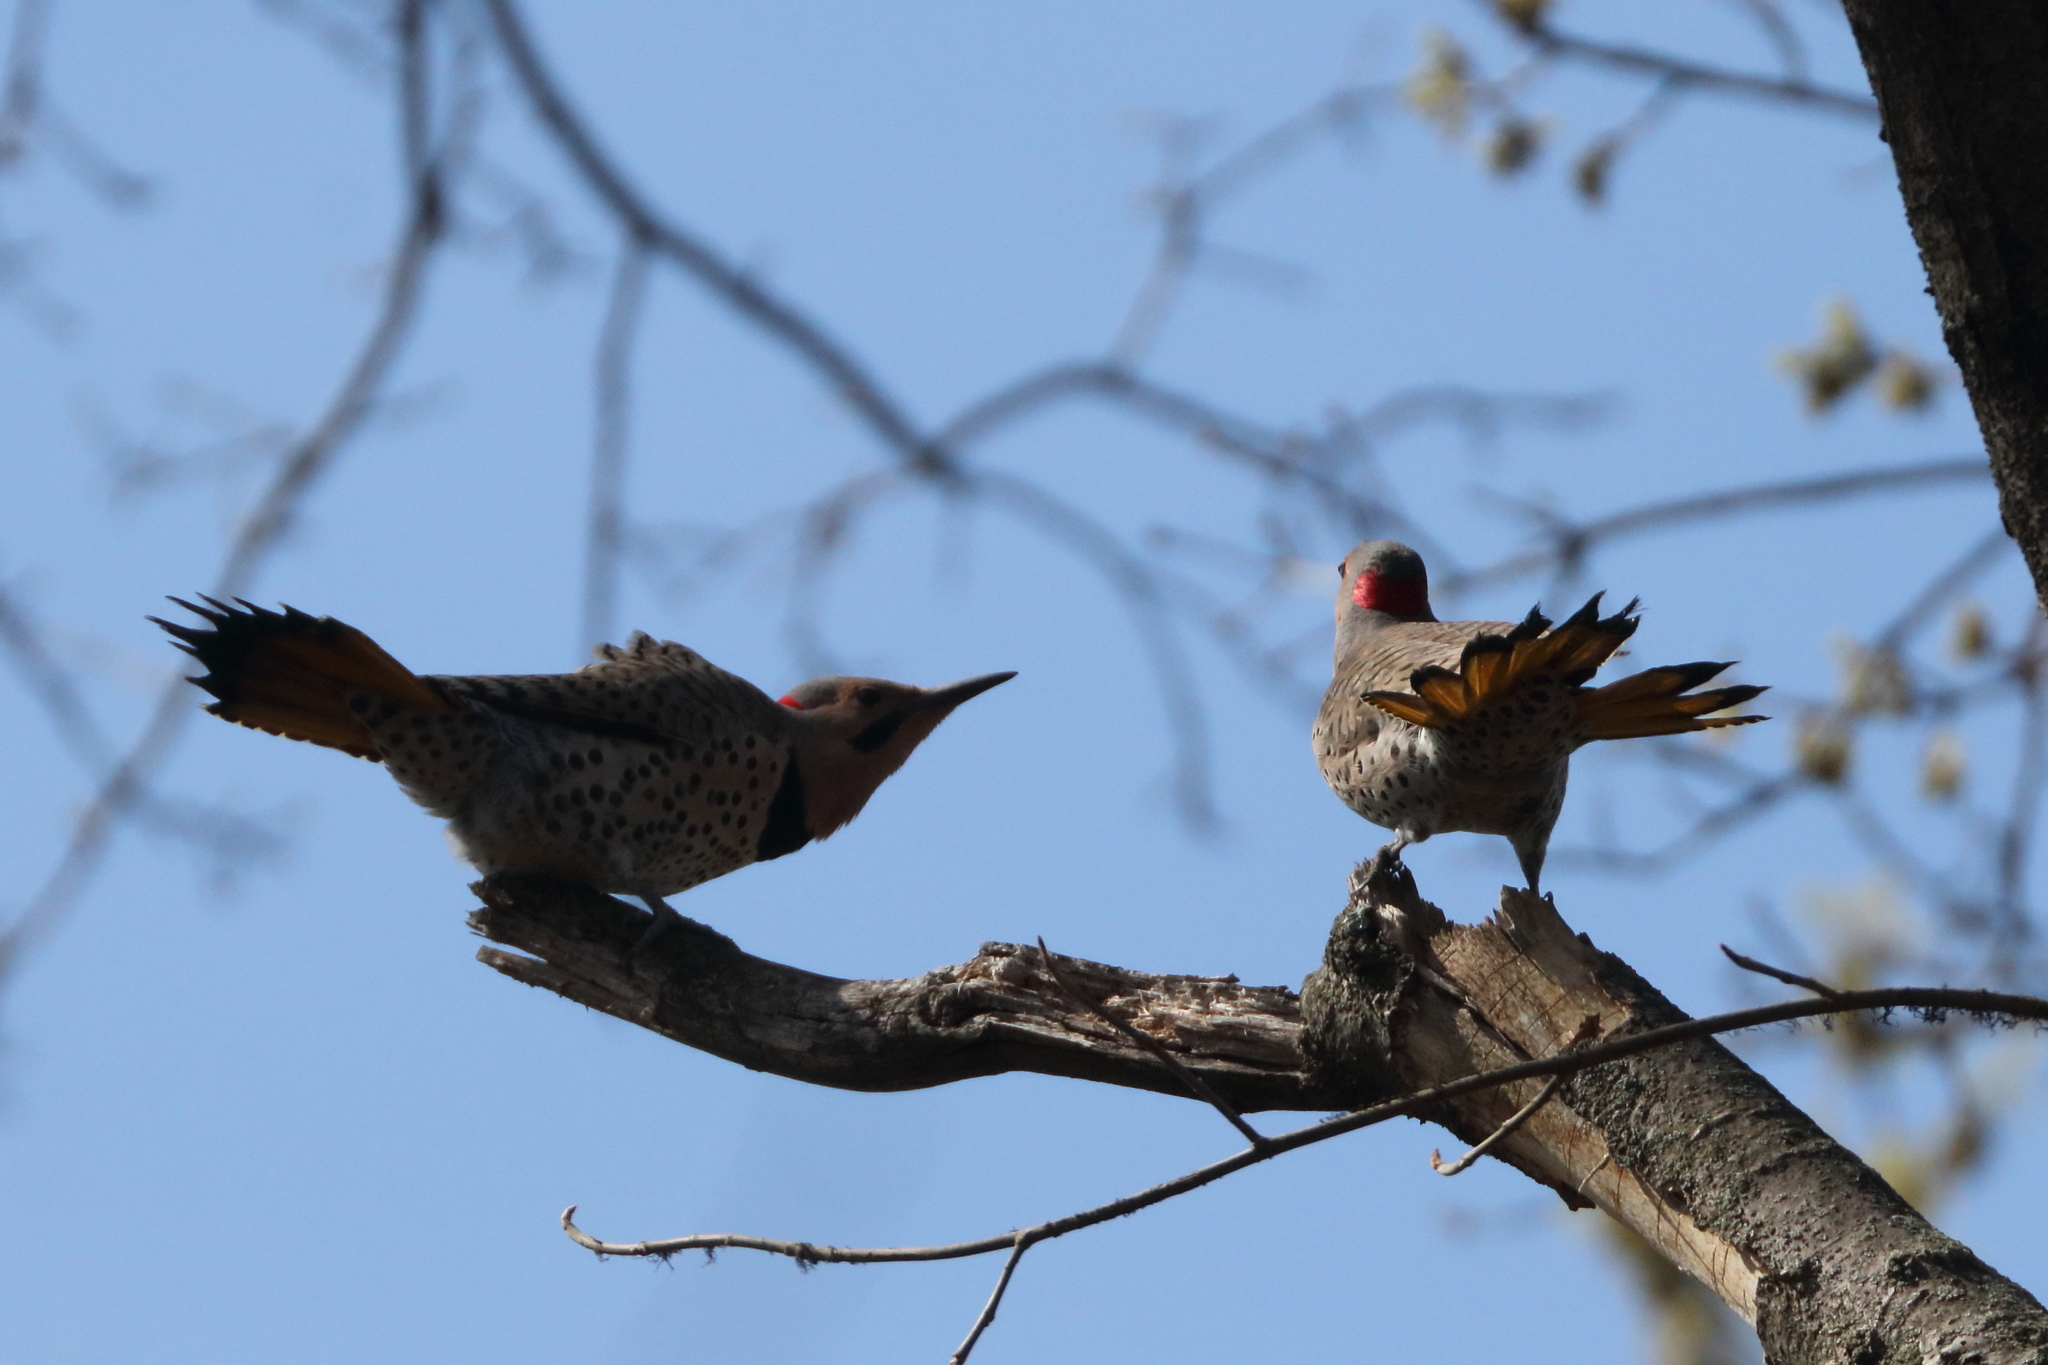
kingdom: Animalia
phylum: Chordata
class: Aves
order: Piciformes
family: Picidae
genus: Colaptes
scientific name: Colaptes auratus
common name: Northern flicker
